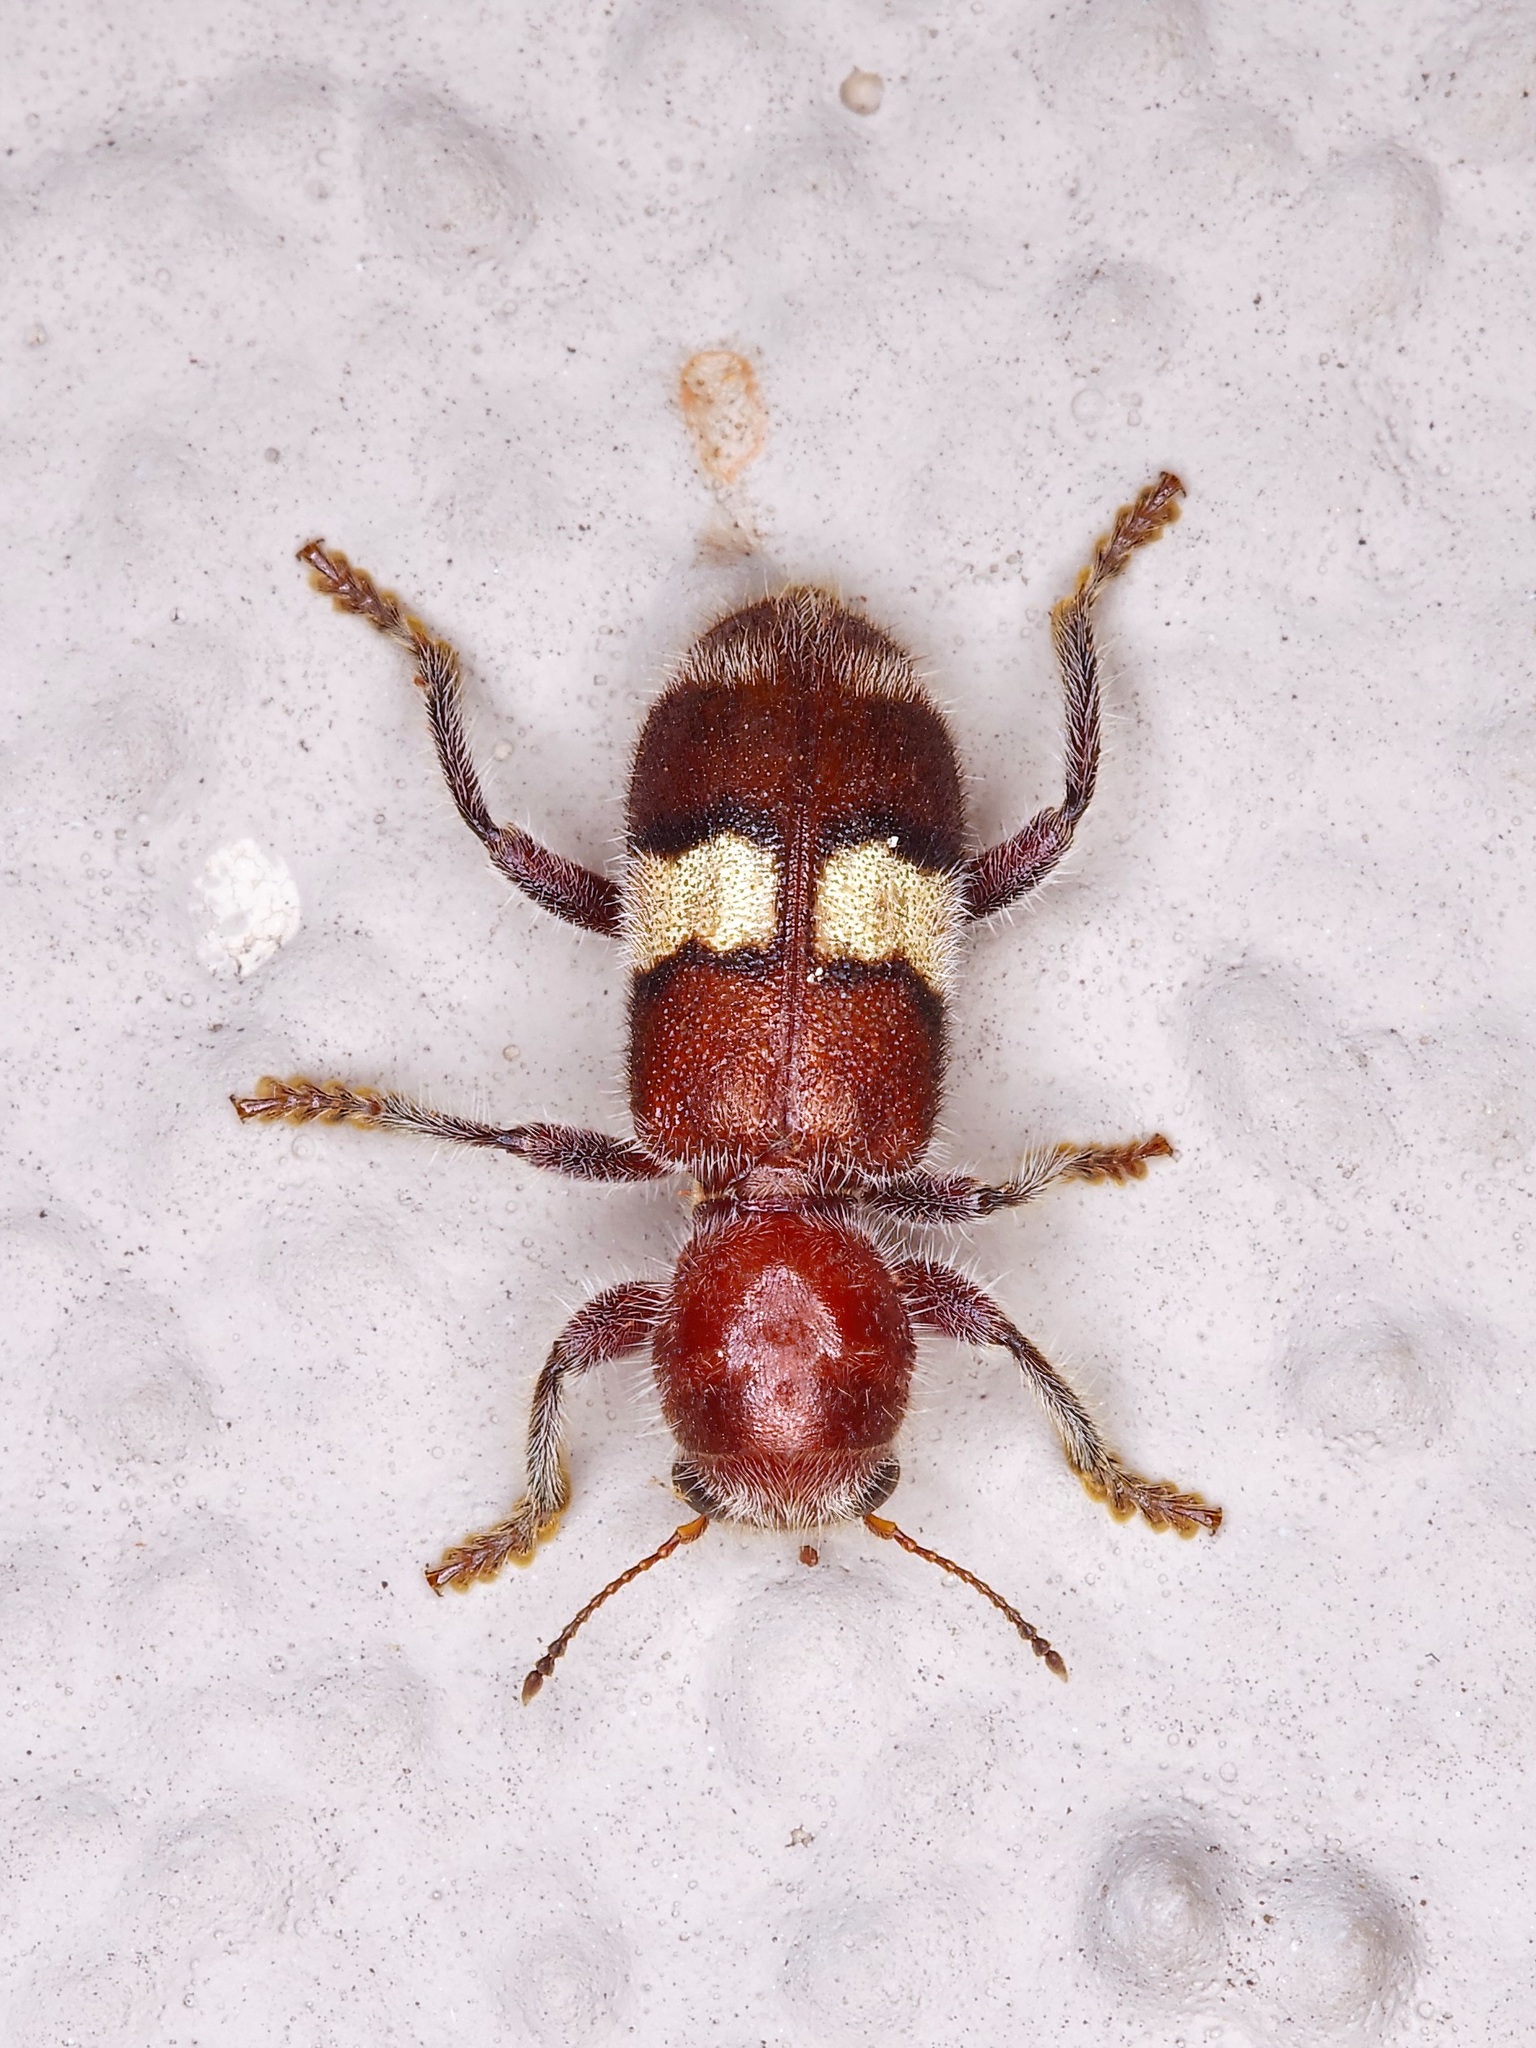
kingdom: Animalia
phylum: Arthropoda
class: Insecta
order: Coleoptera
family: Cleridae
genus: Enoclerus
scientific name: Enoclerus quadrisignatus
